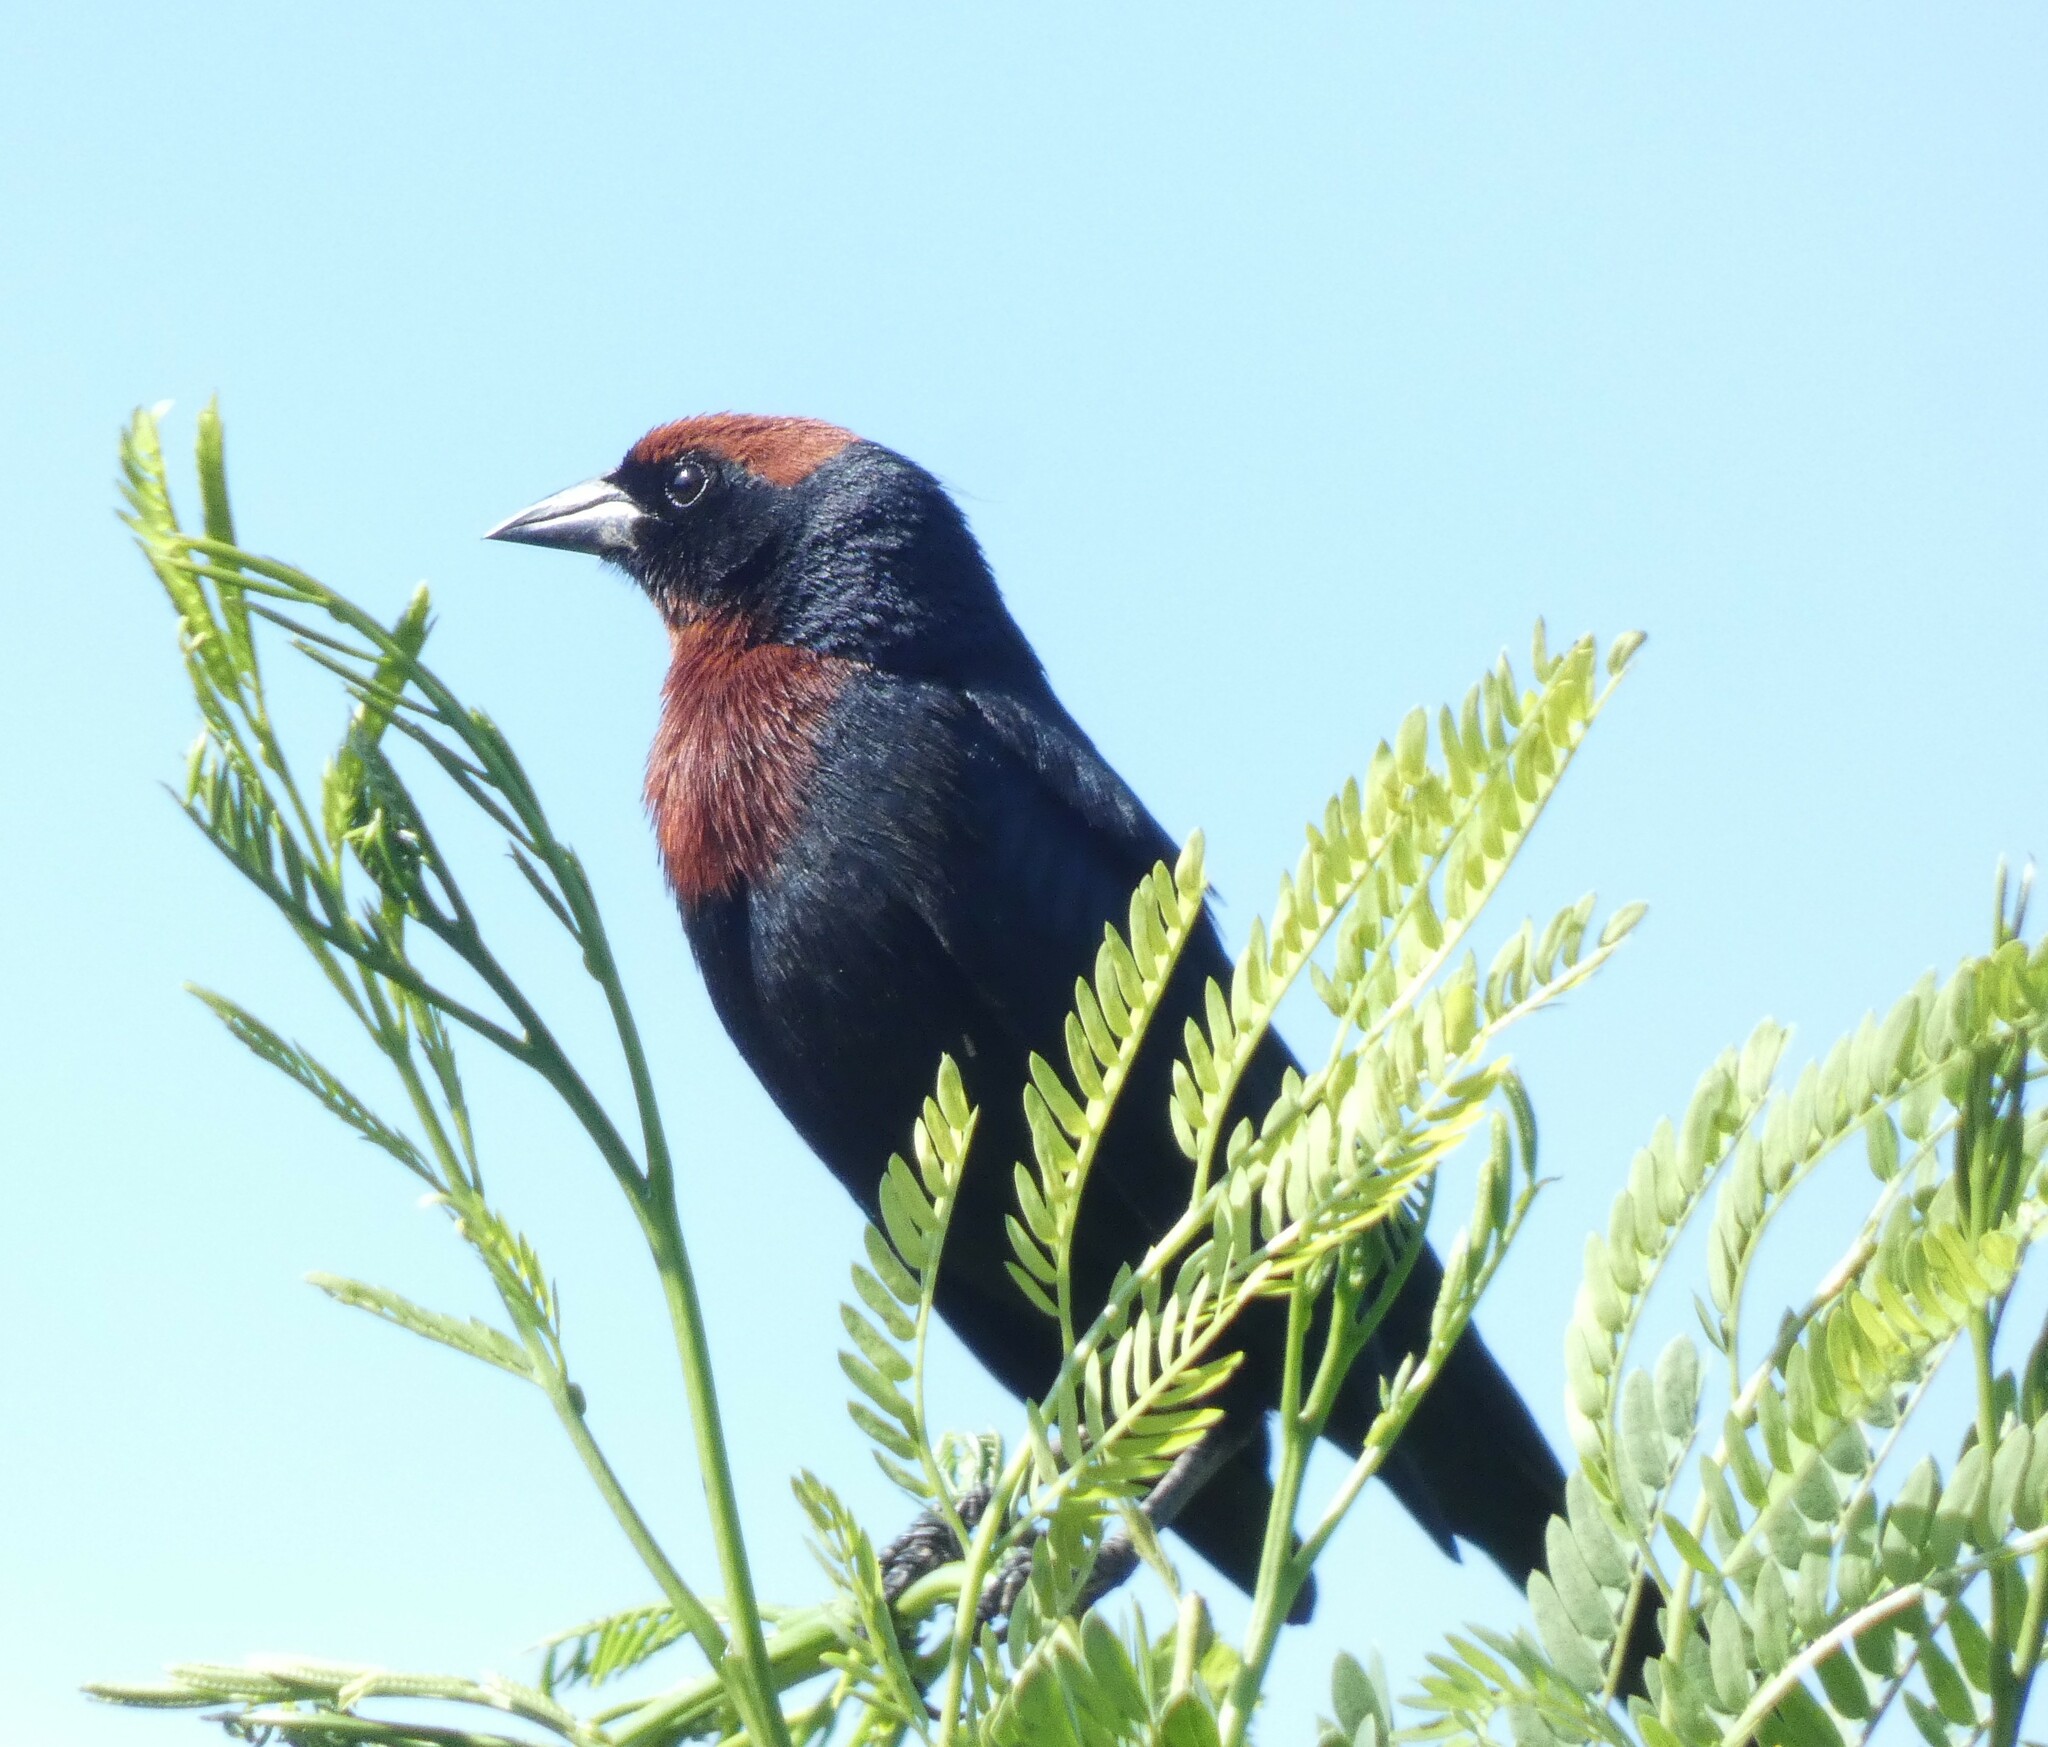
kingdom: Animalia
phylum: Chordata
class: Aves
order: Passeriformes
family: Icteridae
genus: Chrysomus
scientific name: Chrysomus ruficapillus
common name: Chestnut-capped blackbird
